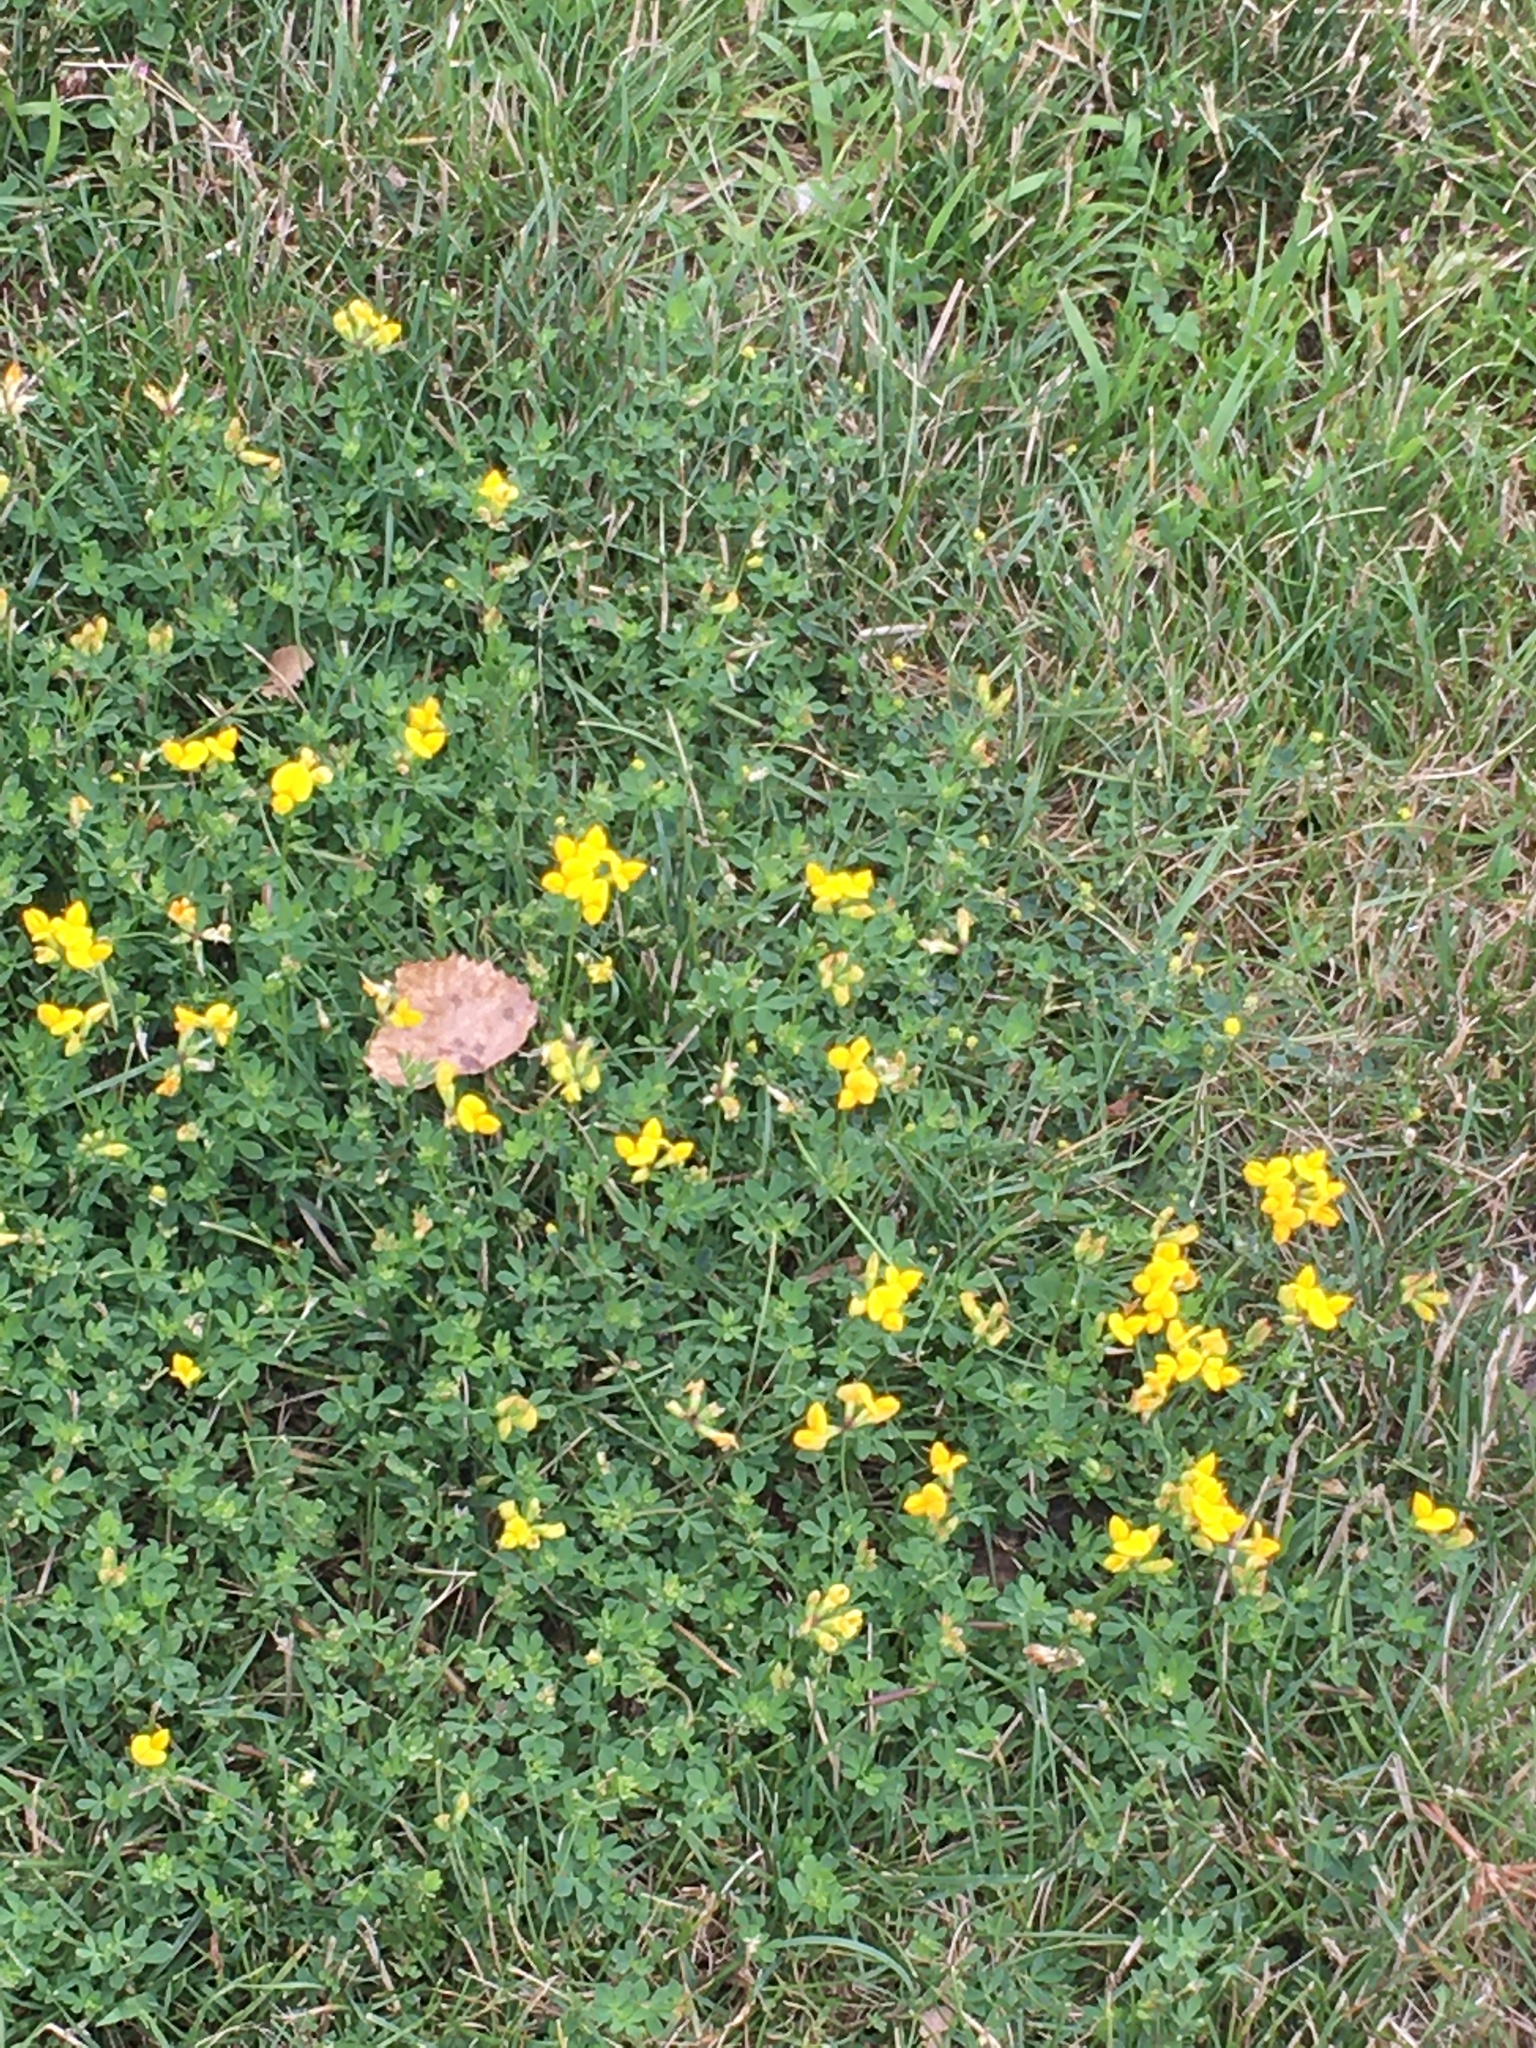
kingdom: Plantae
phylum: Tracheophyta
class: Magnoliopsida
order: Fabales
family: Fabaceae
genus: Lotus
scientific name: Lotus corniculatus
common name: Common bird's-foot-trefoil
